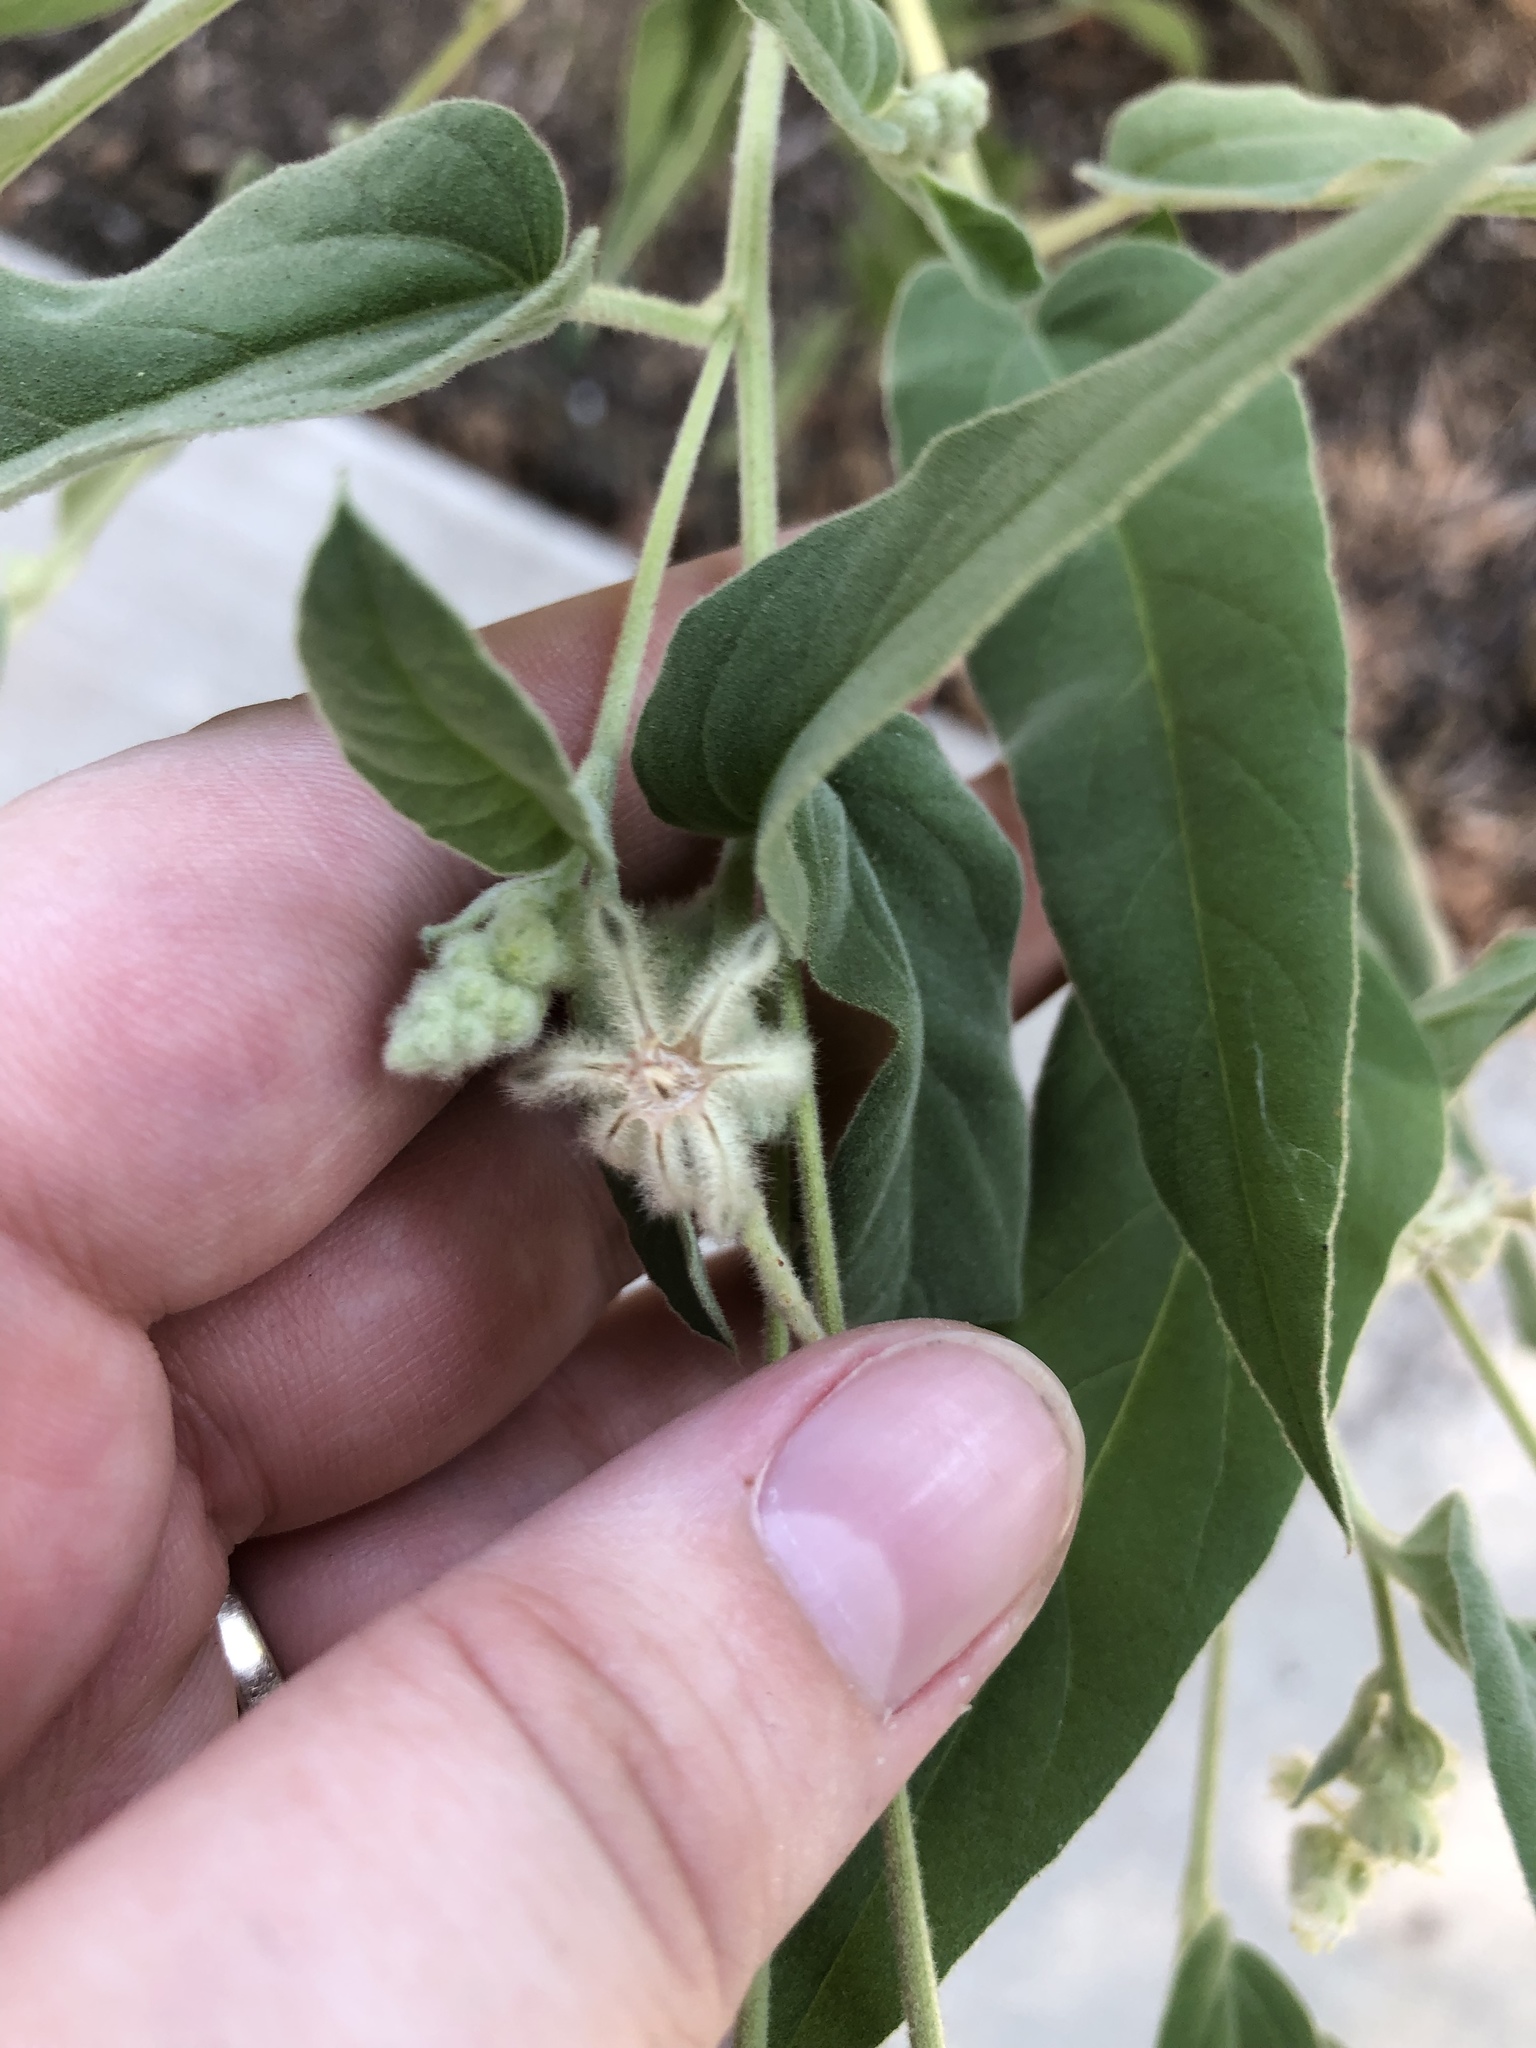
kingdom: Plantae
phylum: Tracheophyta
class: Magnoliopsida
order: Malpighiales
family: Euphorbiaceae
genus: Croton
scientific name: Croton lindheimeri
